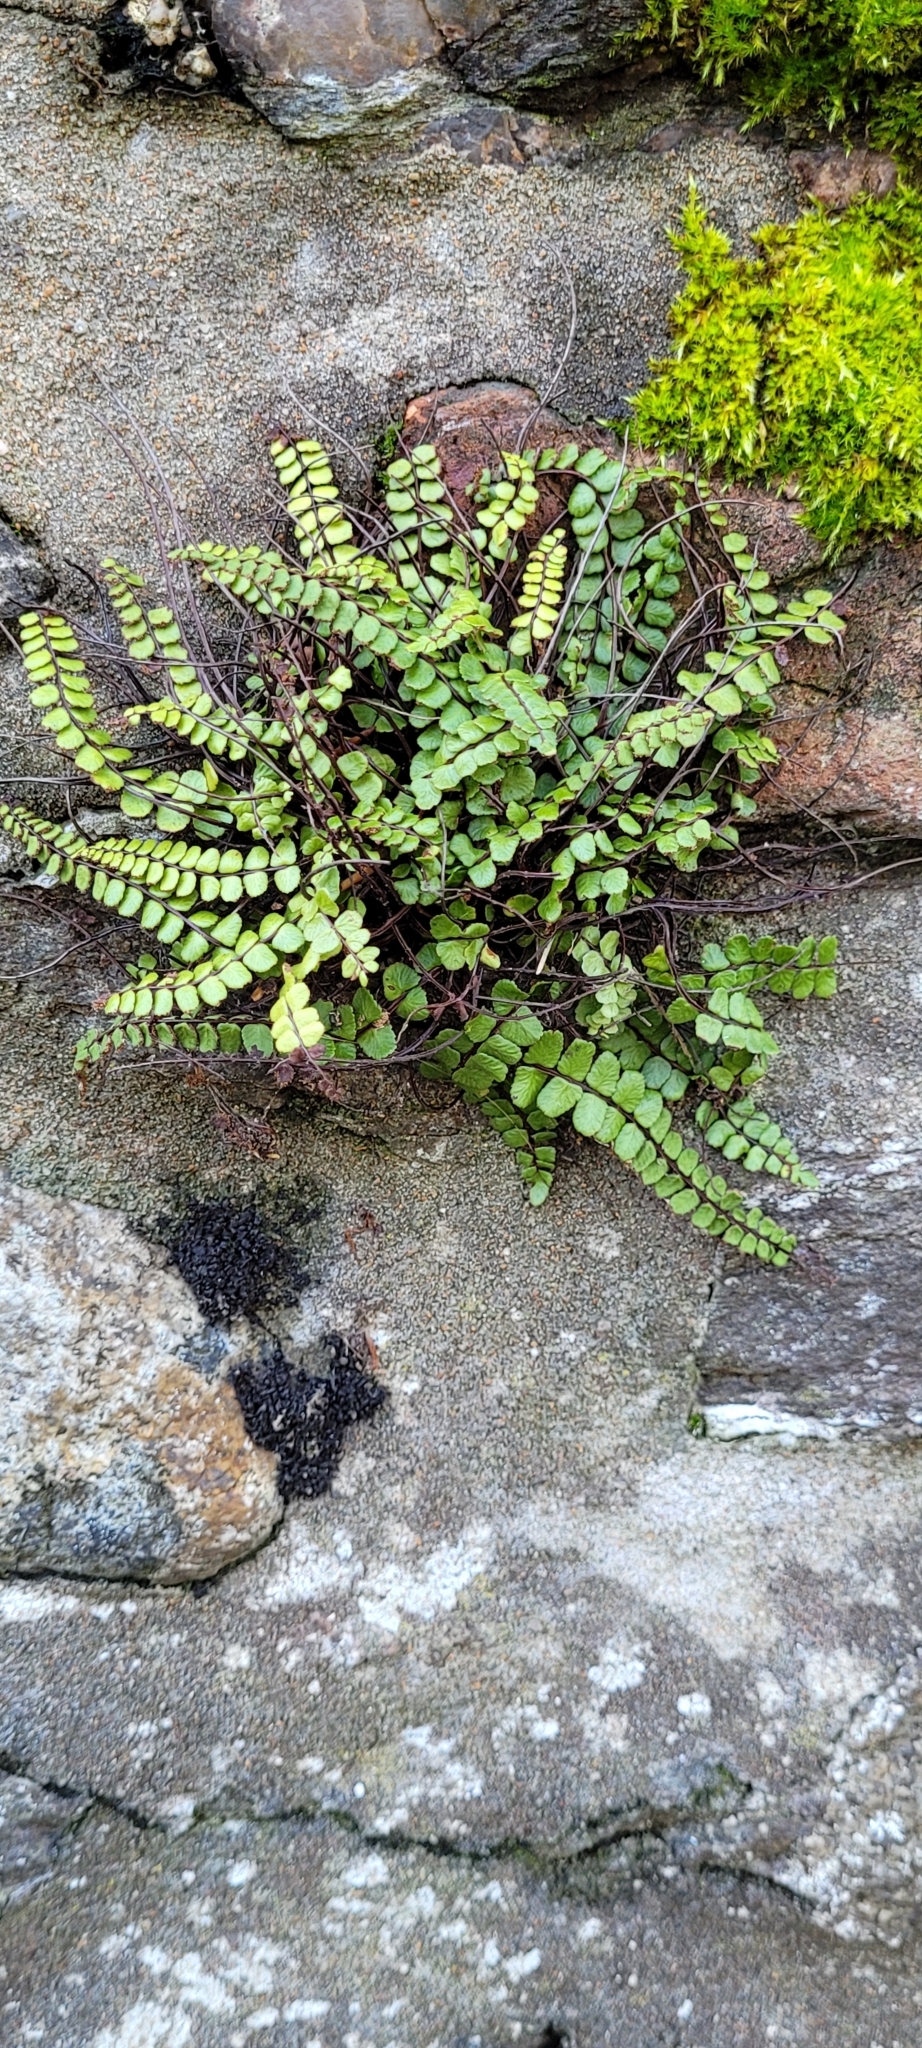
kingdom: Plantae
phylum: Tracheophyta
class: Polypodiopsida
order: Polypodiales
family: Aspleniaceae
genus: Asplenium
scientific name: Asplenium trichomanes
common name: Maidenhair spleenwort
